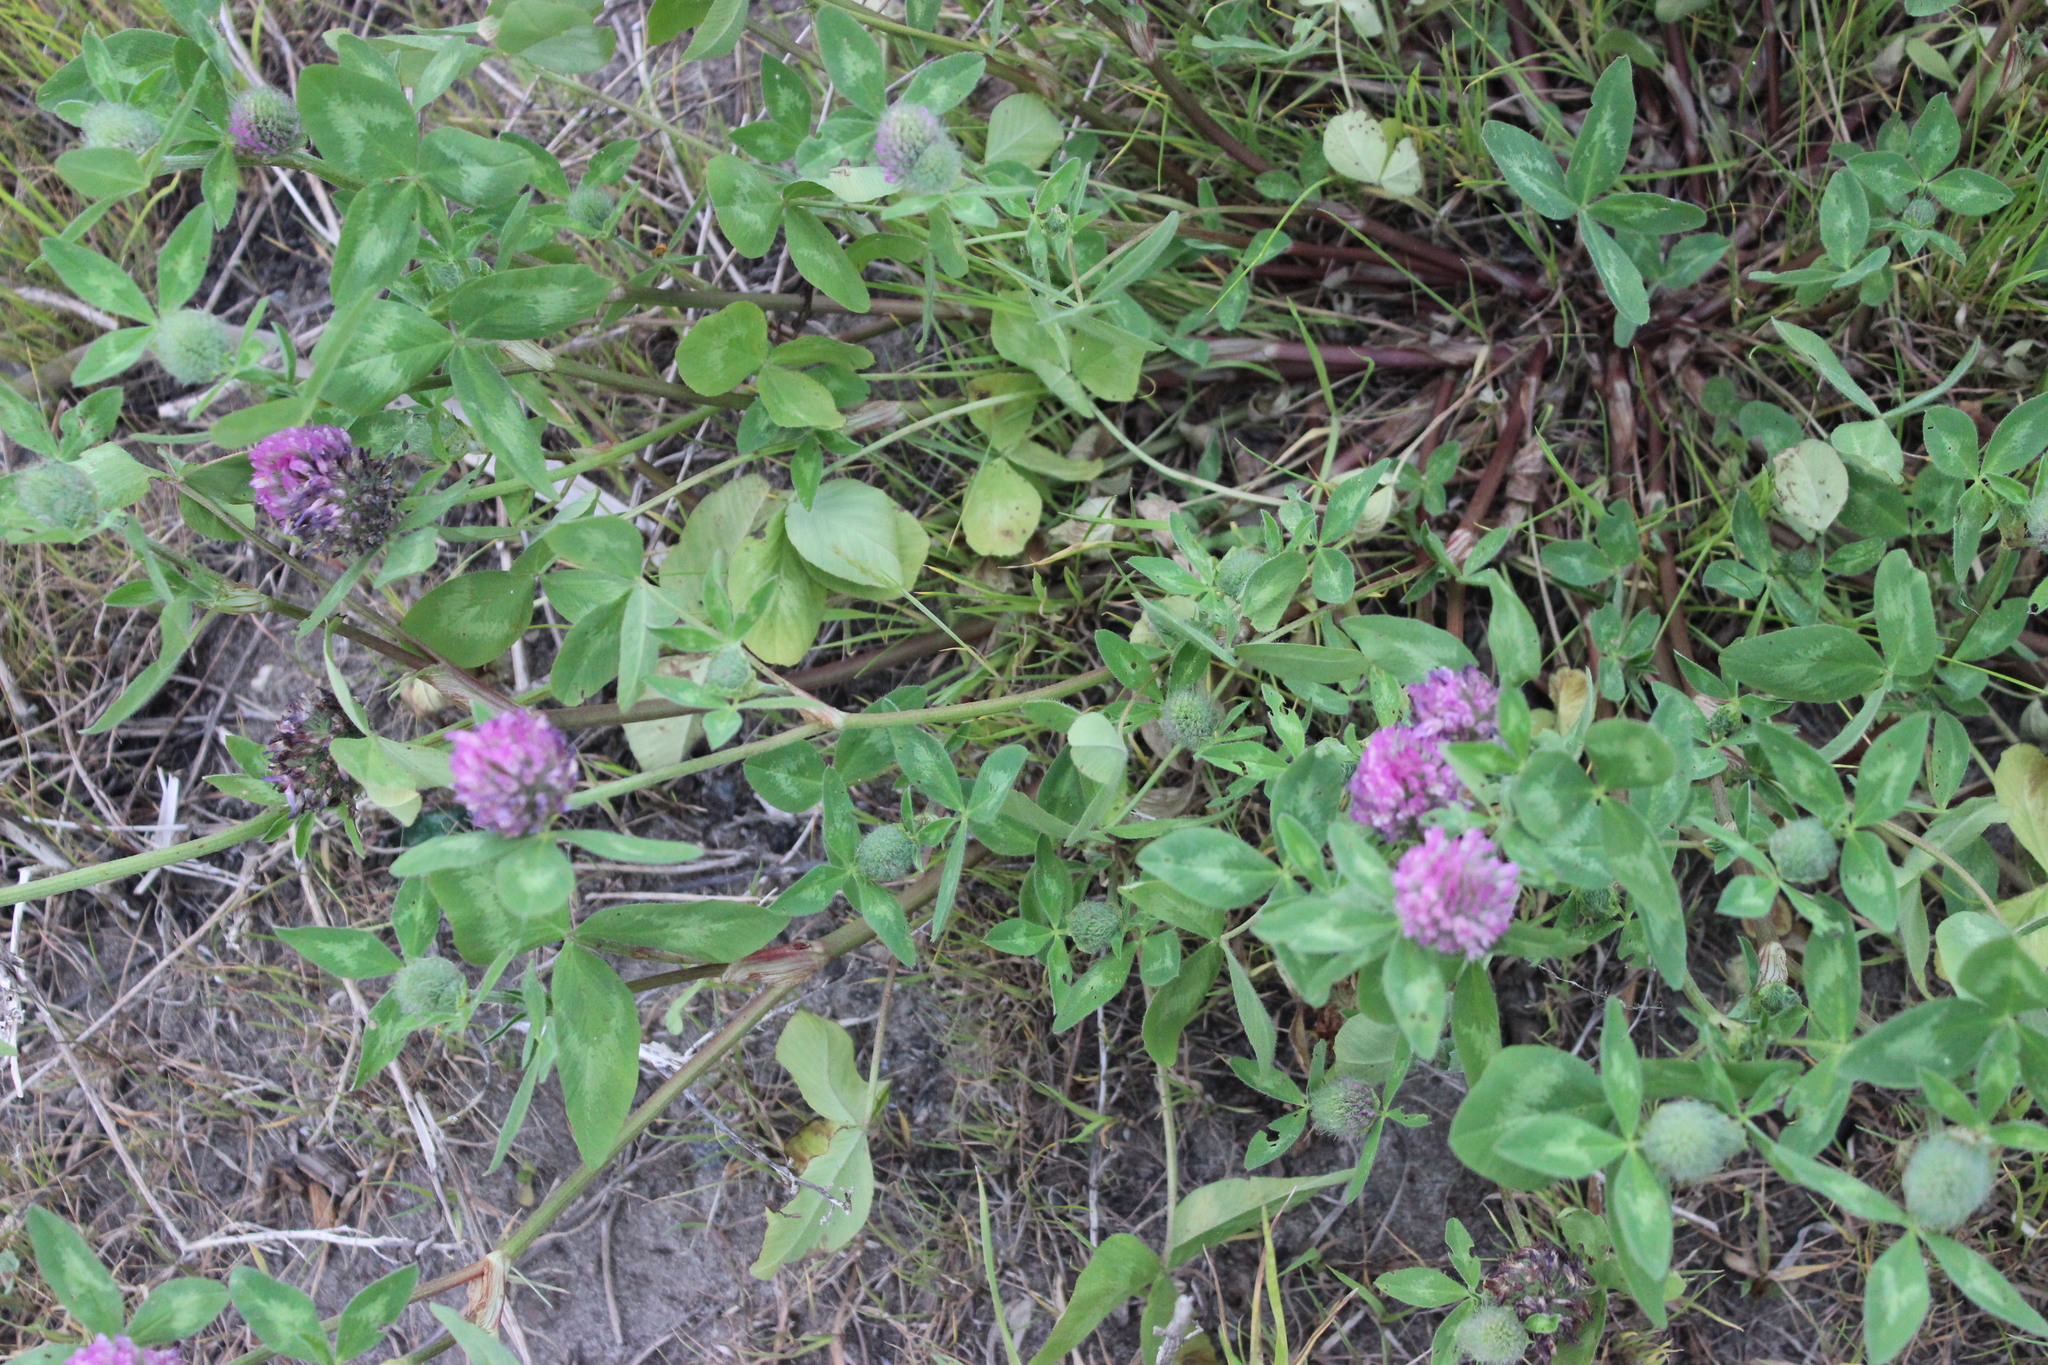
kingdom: Plantae
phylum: Tracheophyta
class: Magnoliopsida
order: Fabales
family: Fabaceae
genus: Trifolium
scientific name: Trifolium pratense
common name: Red clover
